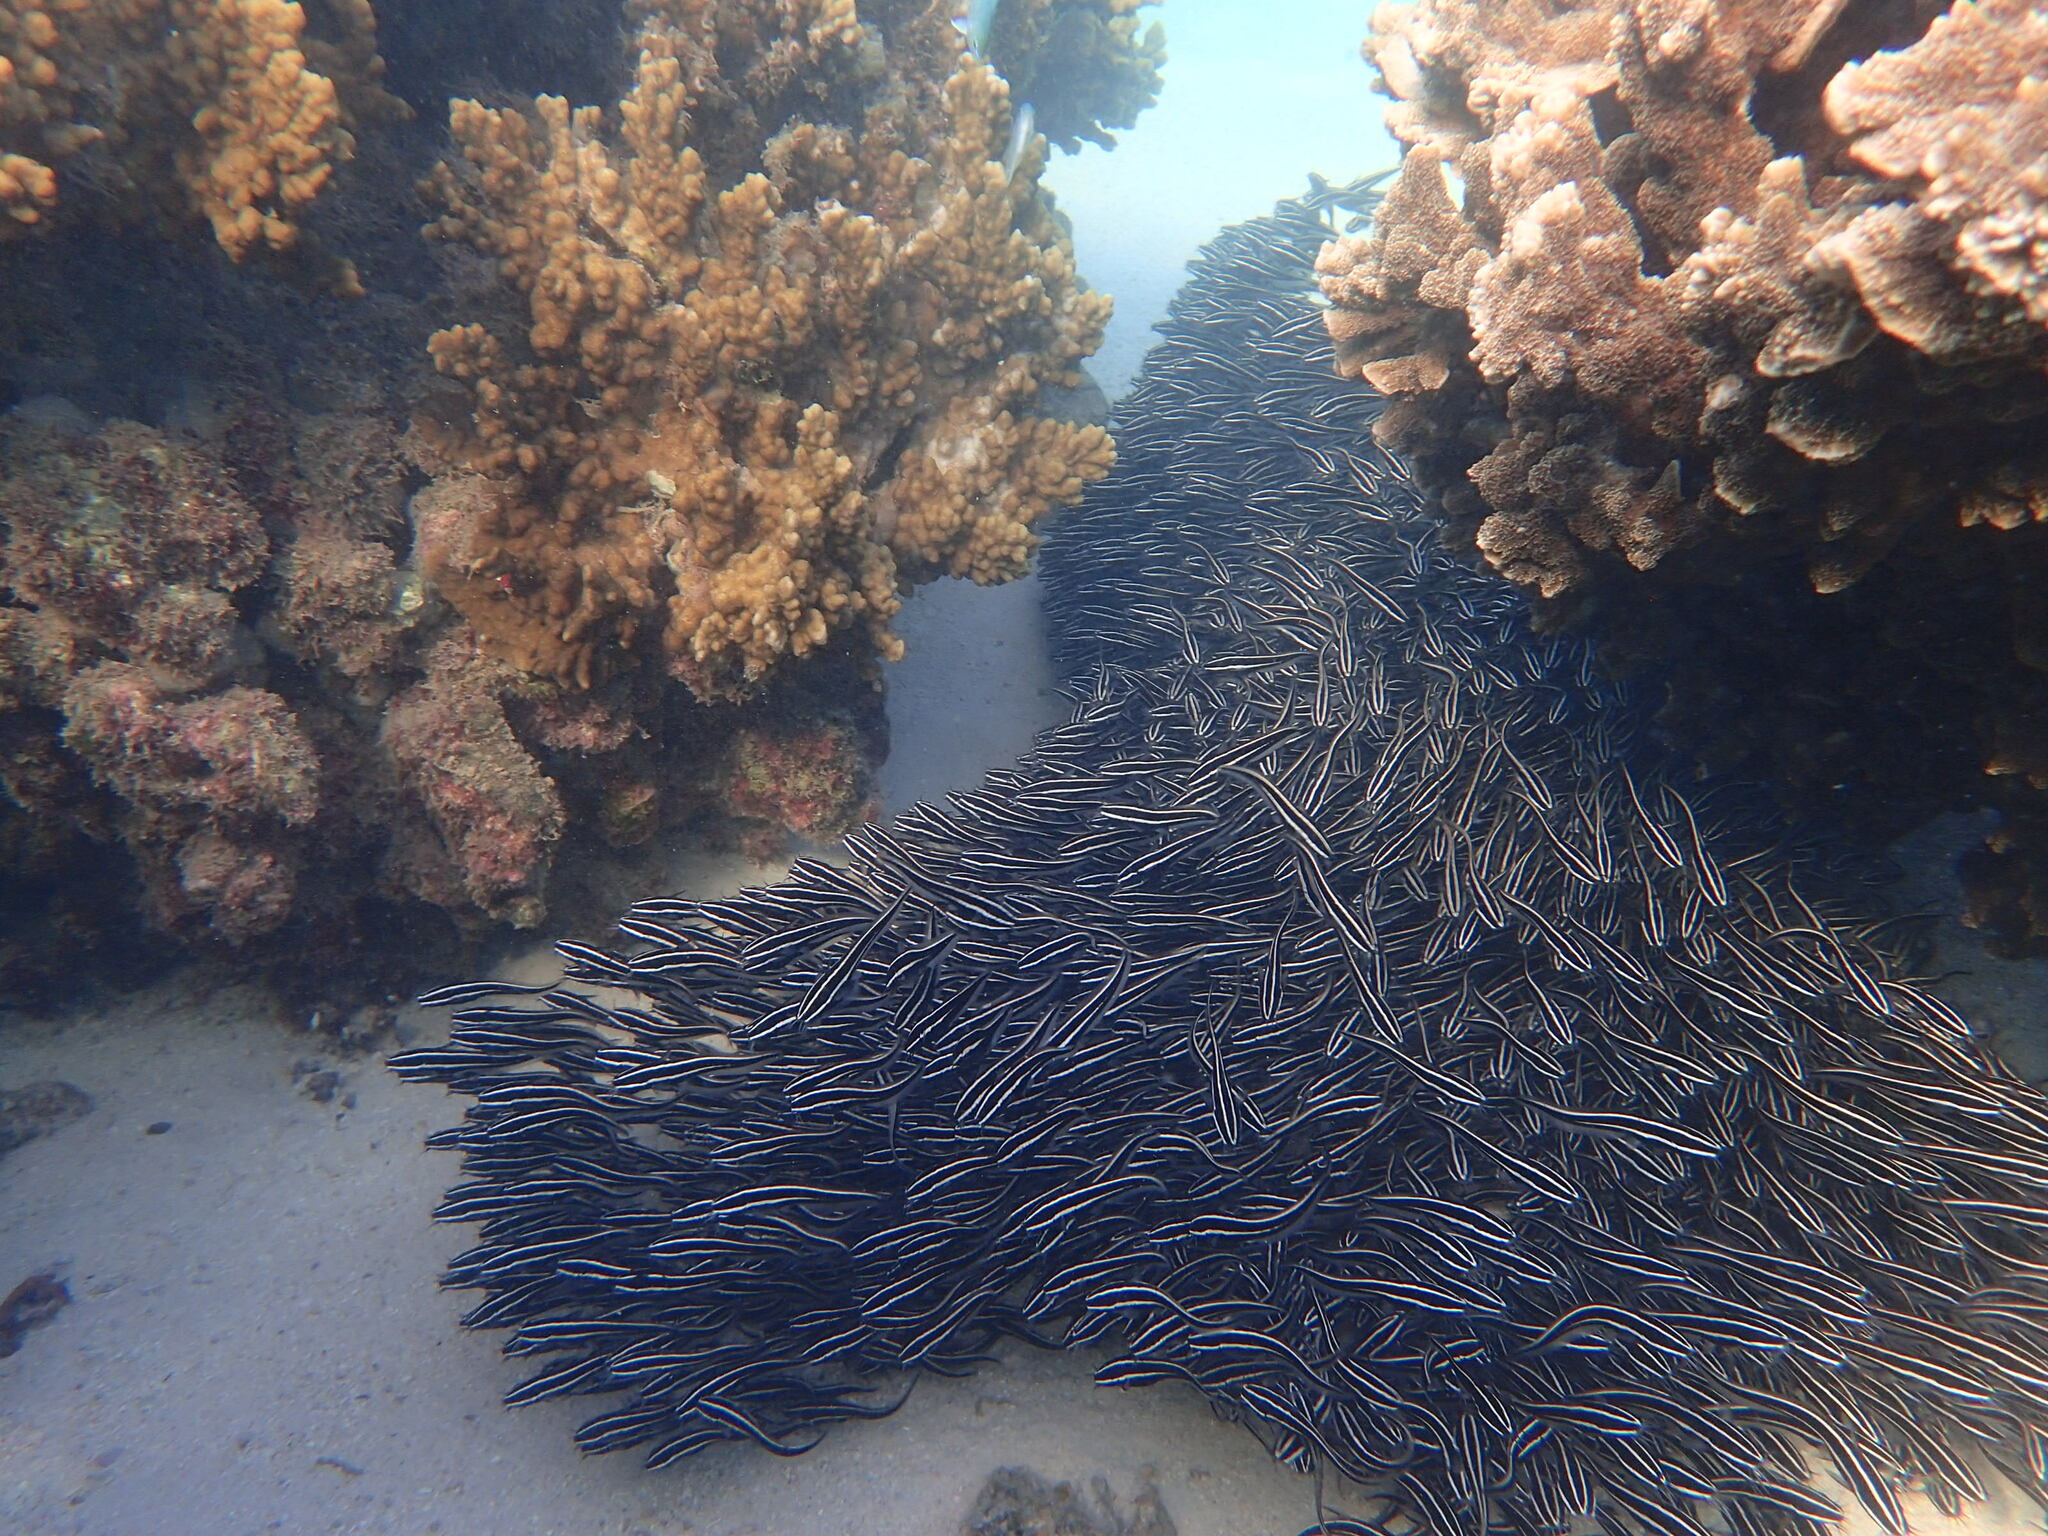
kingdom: Animalia
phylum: Chordata
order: Siluriformes
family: Plotosidae
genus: Plotosus
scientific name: Plotosus lineatus
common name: Striped eel catfish
